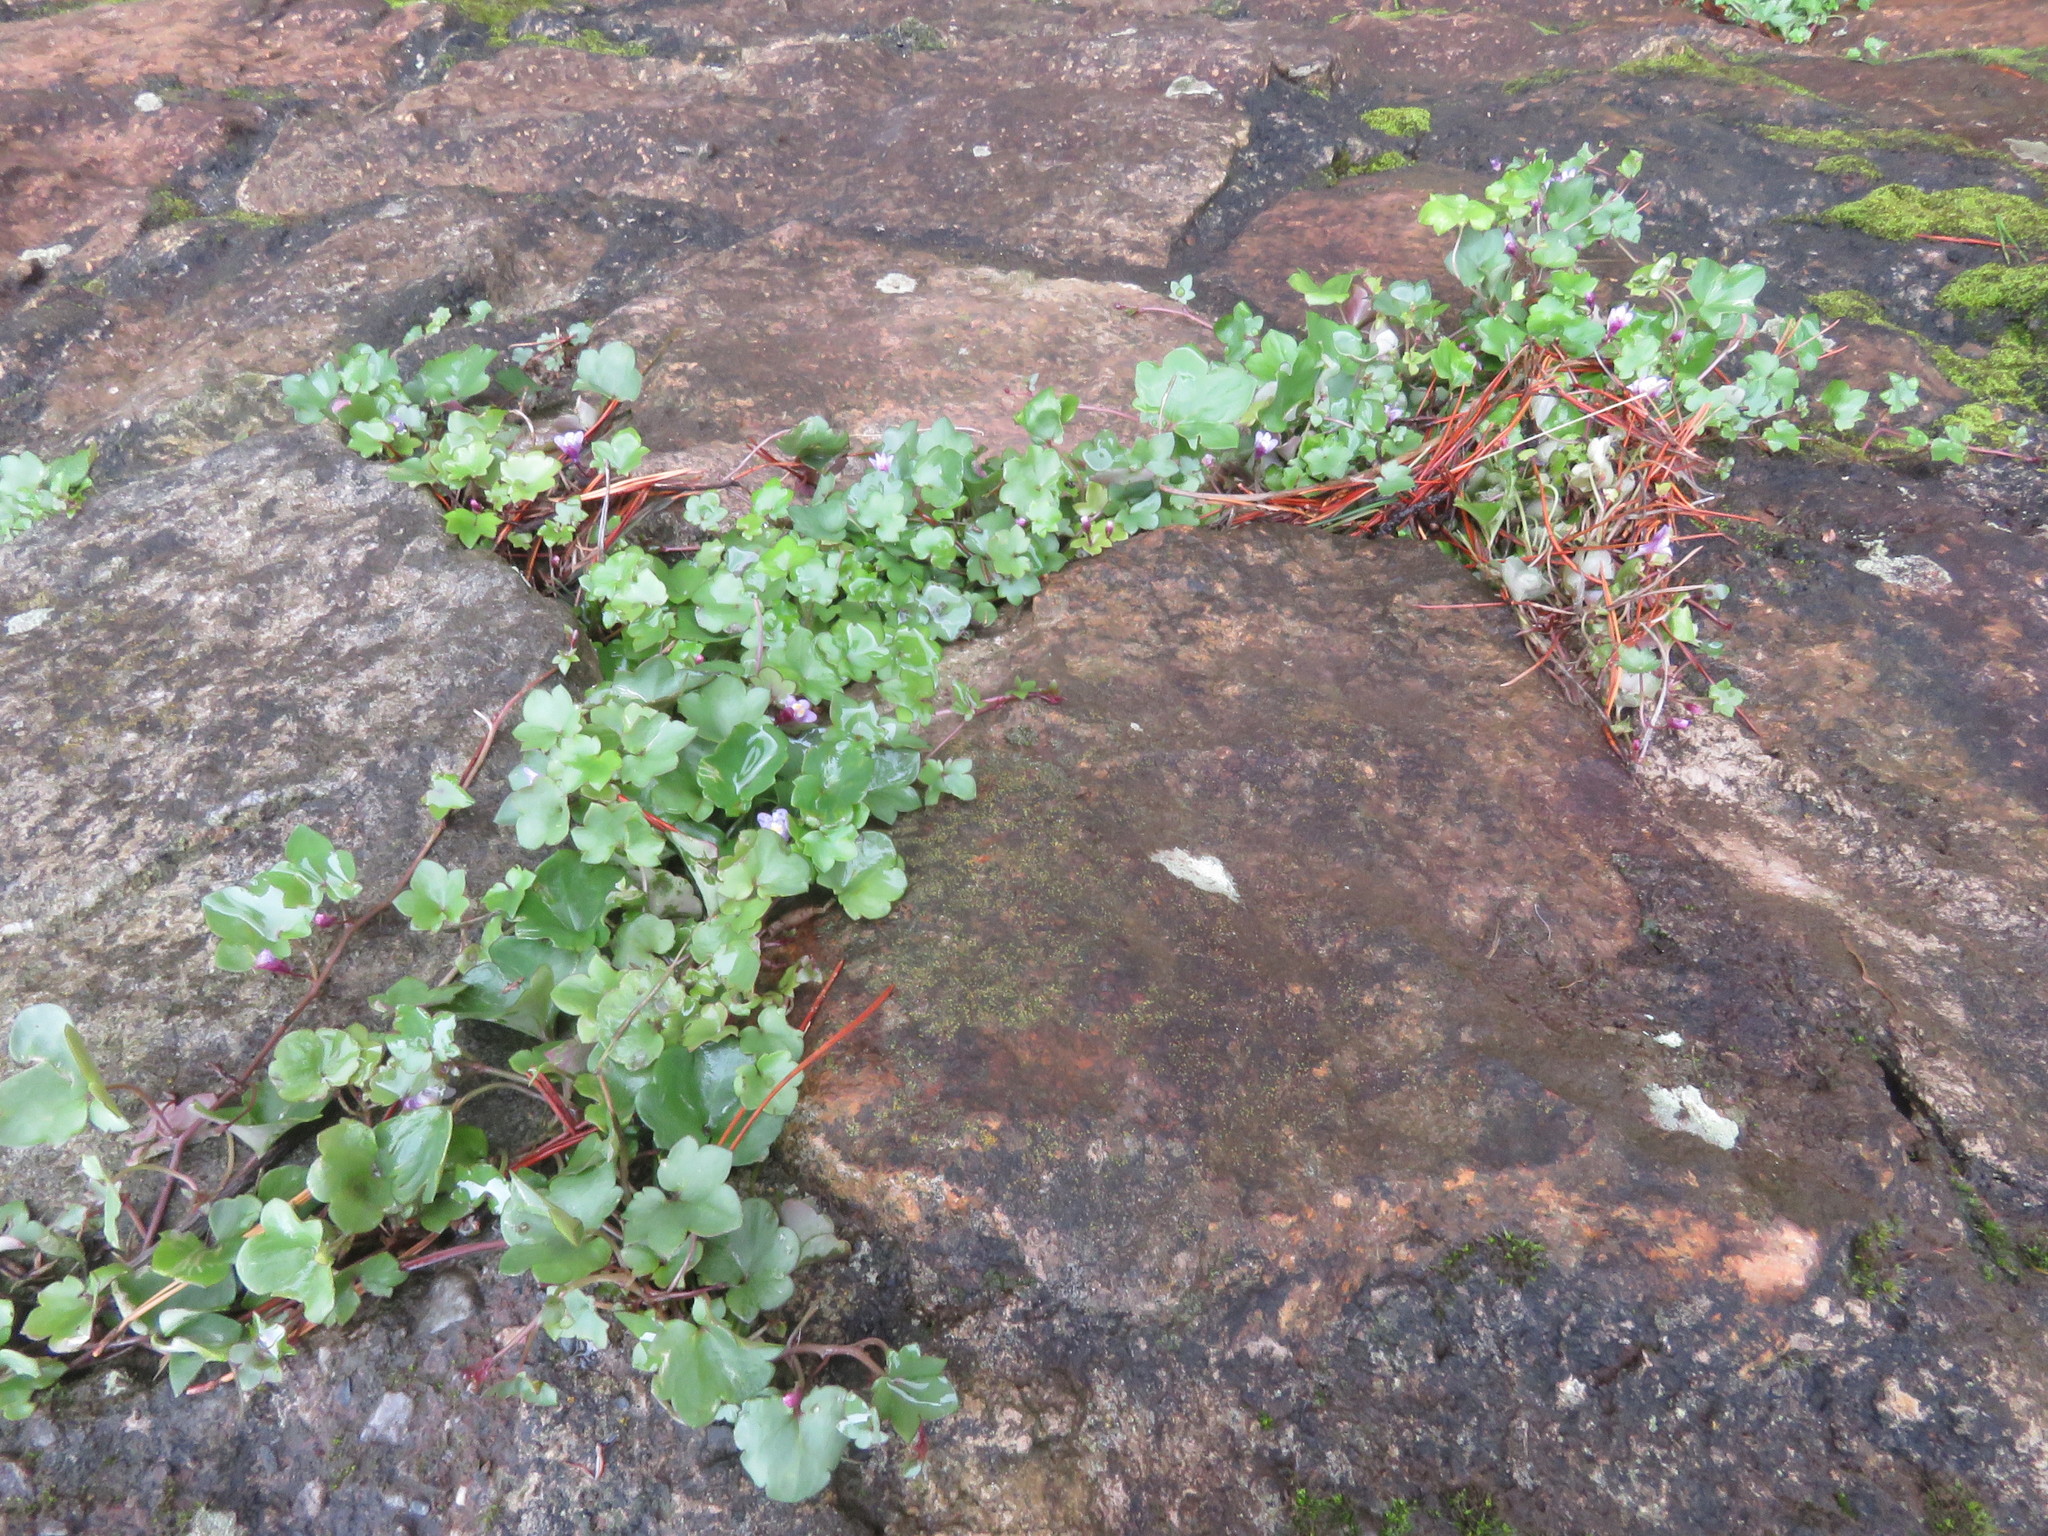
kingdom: Plantae
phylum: Tracheophyta
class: Magnoliopsida
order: Lamiales
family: Plantaginaceae
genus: Cymbalaria
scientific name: Cymbalaria muralis
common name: Ivy-leaved toadflax
